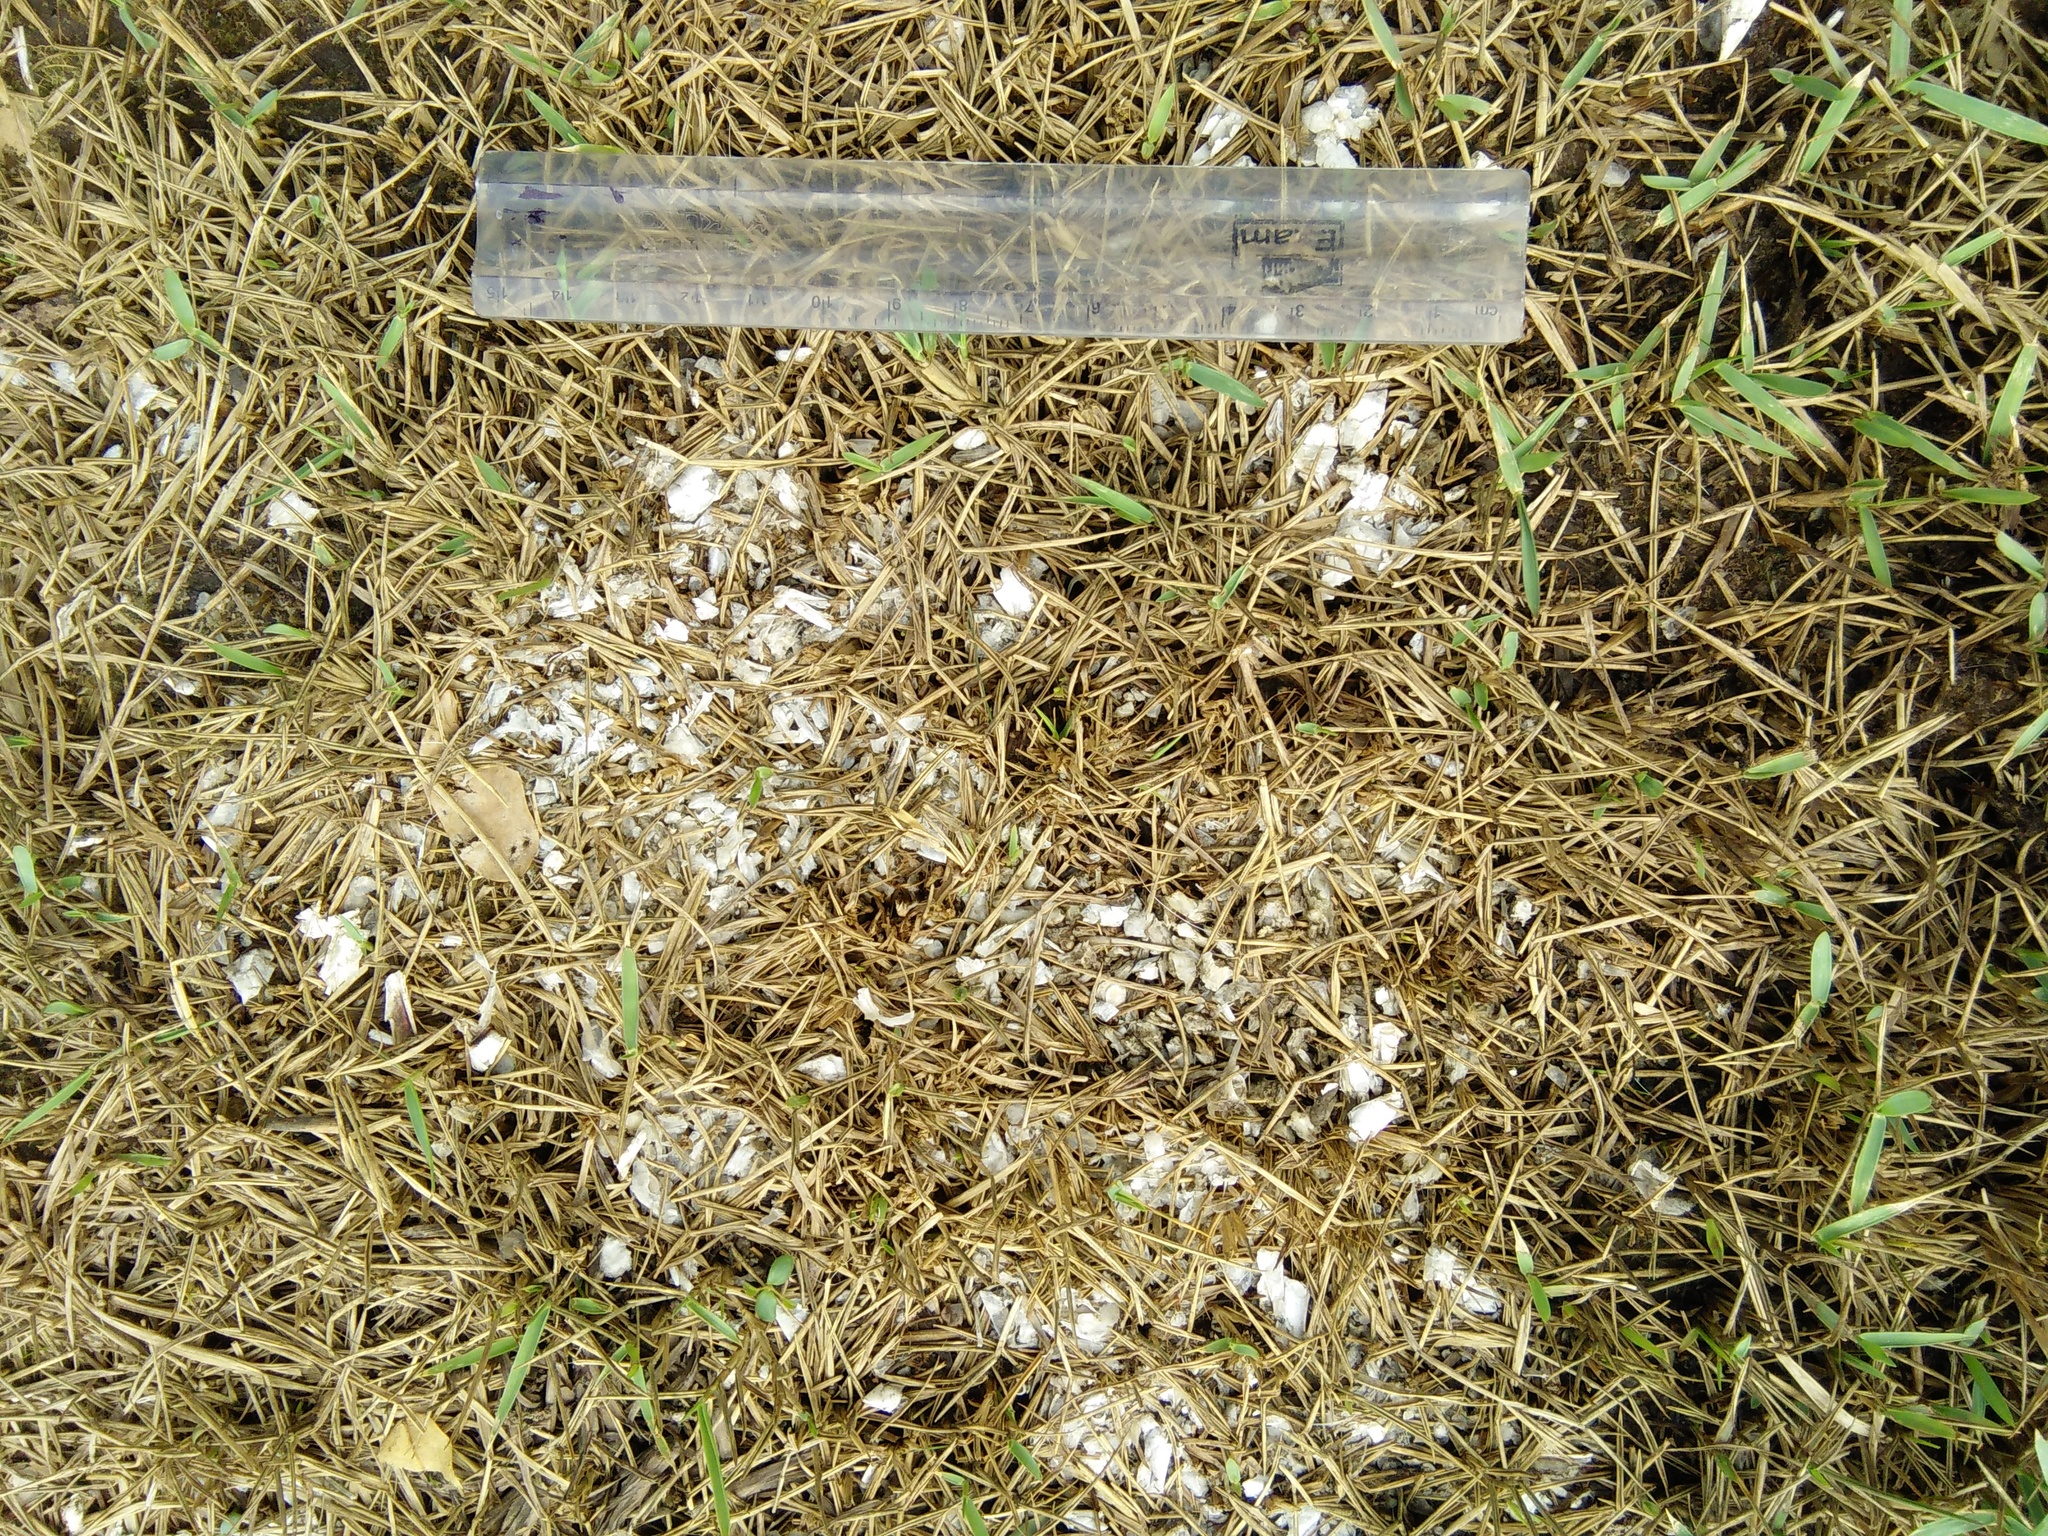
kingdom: Animalia
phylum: Chordata
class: Mammalia
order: Carnivora
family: Mustelidae
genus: Lutrogale
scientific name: Lutrogale perspicillata
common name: Smooth-coated otter
